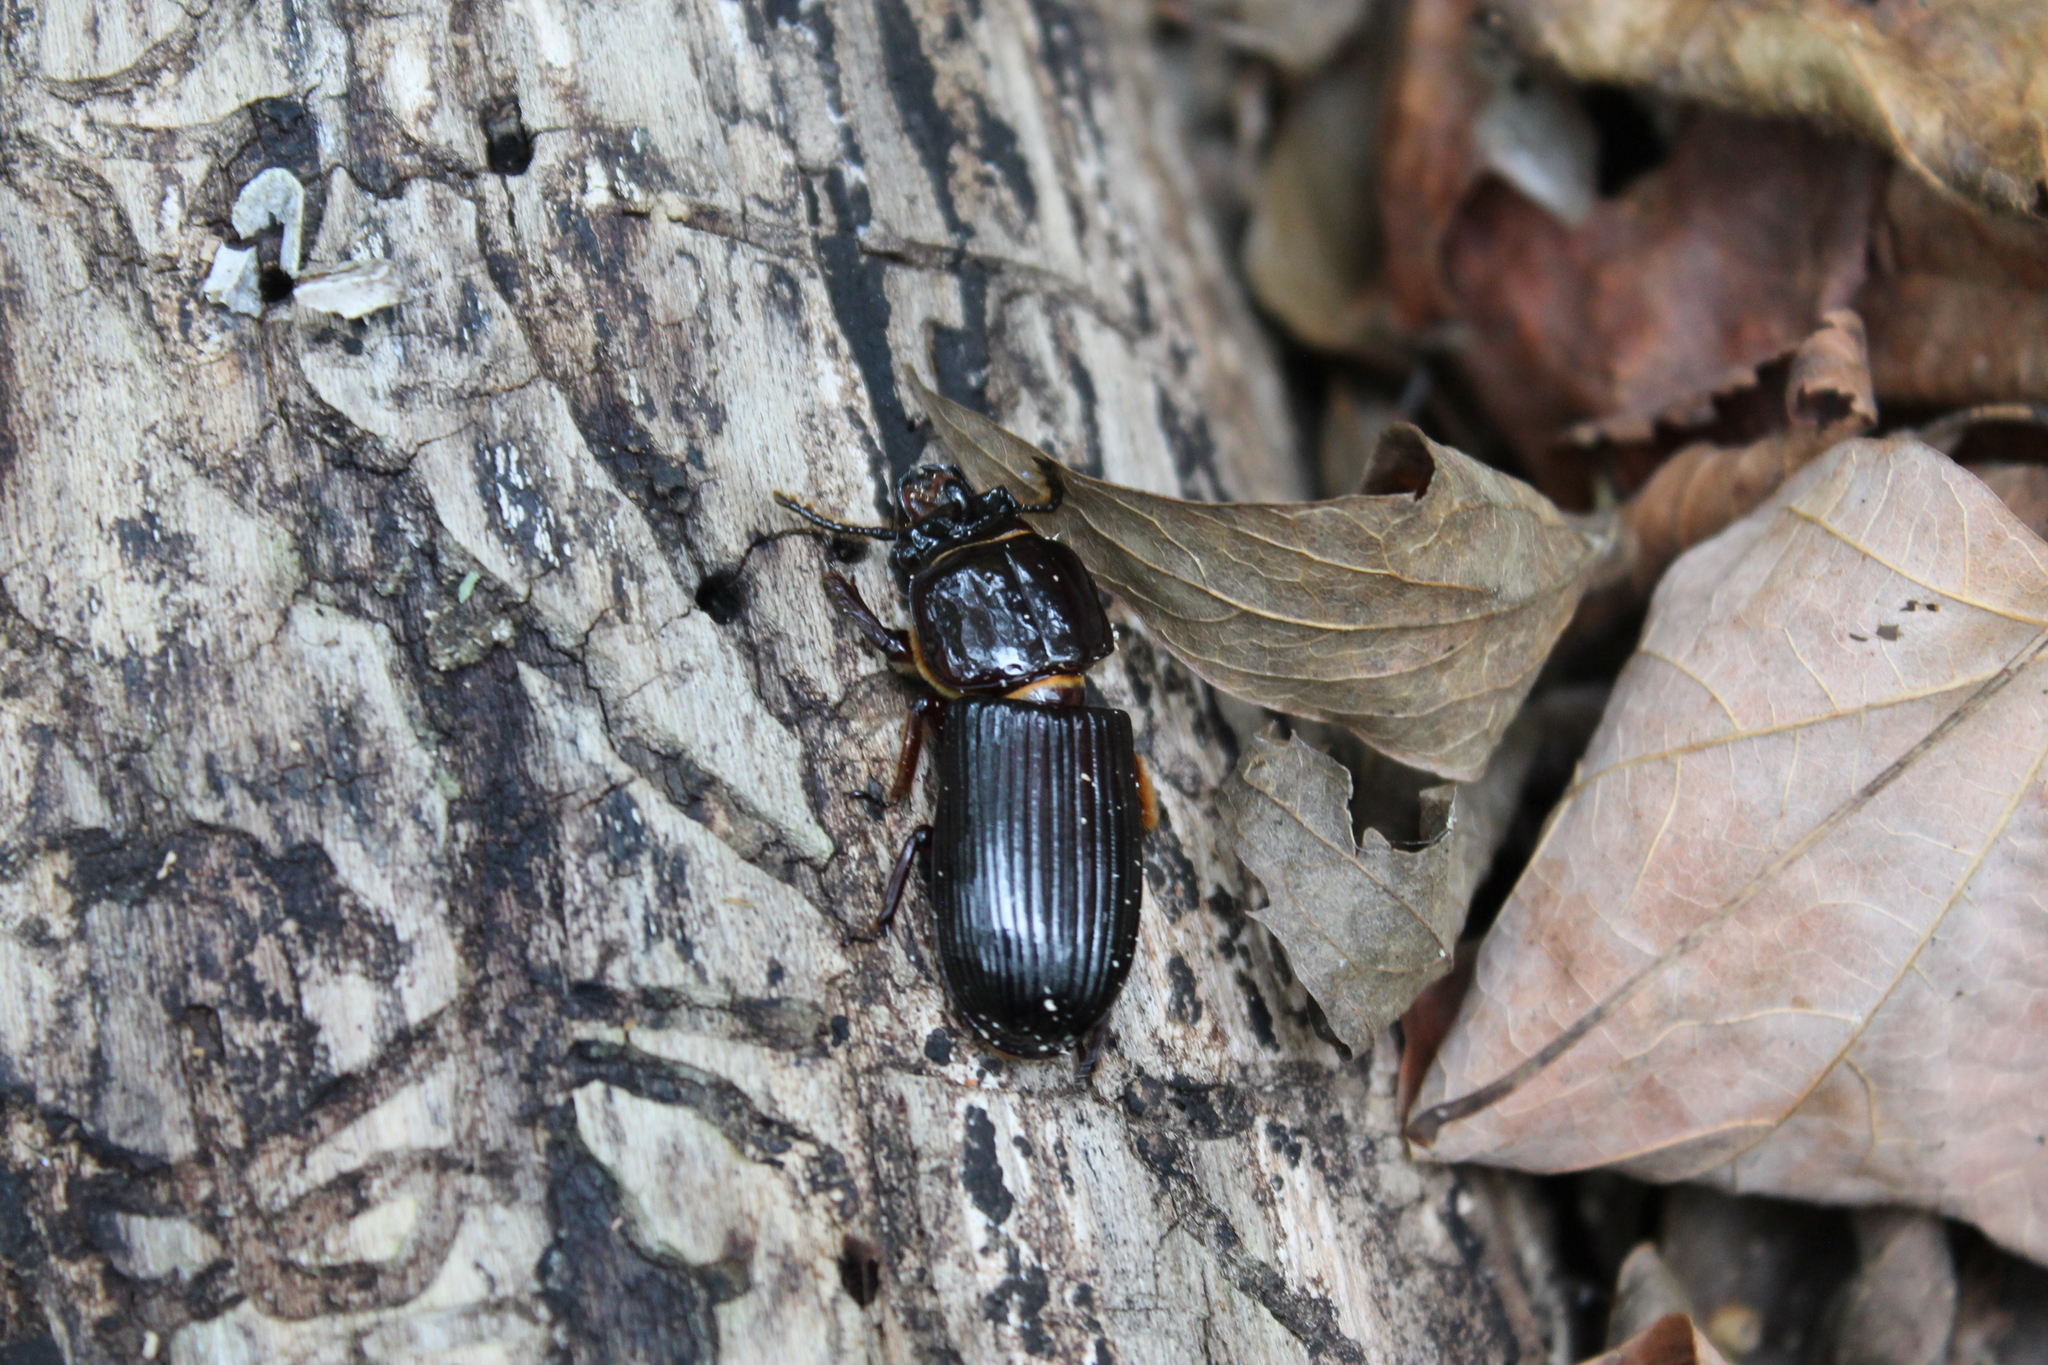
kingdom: Animalia
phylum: Arthropoda
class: Insecta
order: Coleoptera
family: Passalidae
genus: Odontotaenius
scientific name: Odontotaenius disjunctus
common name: Patent leather beetle
